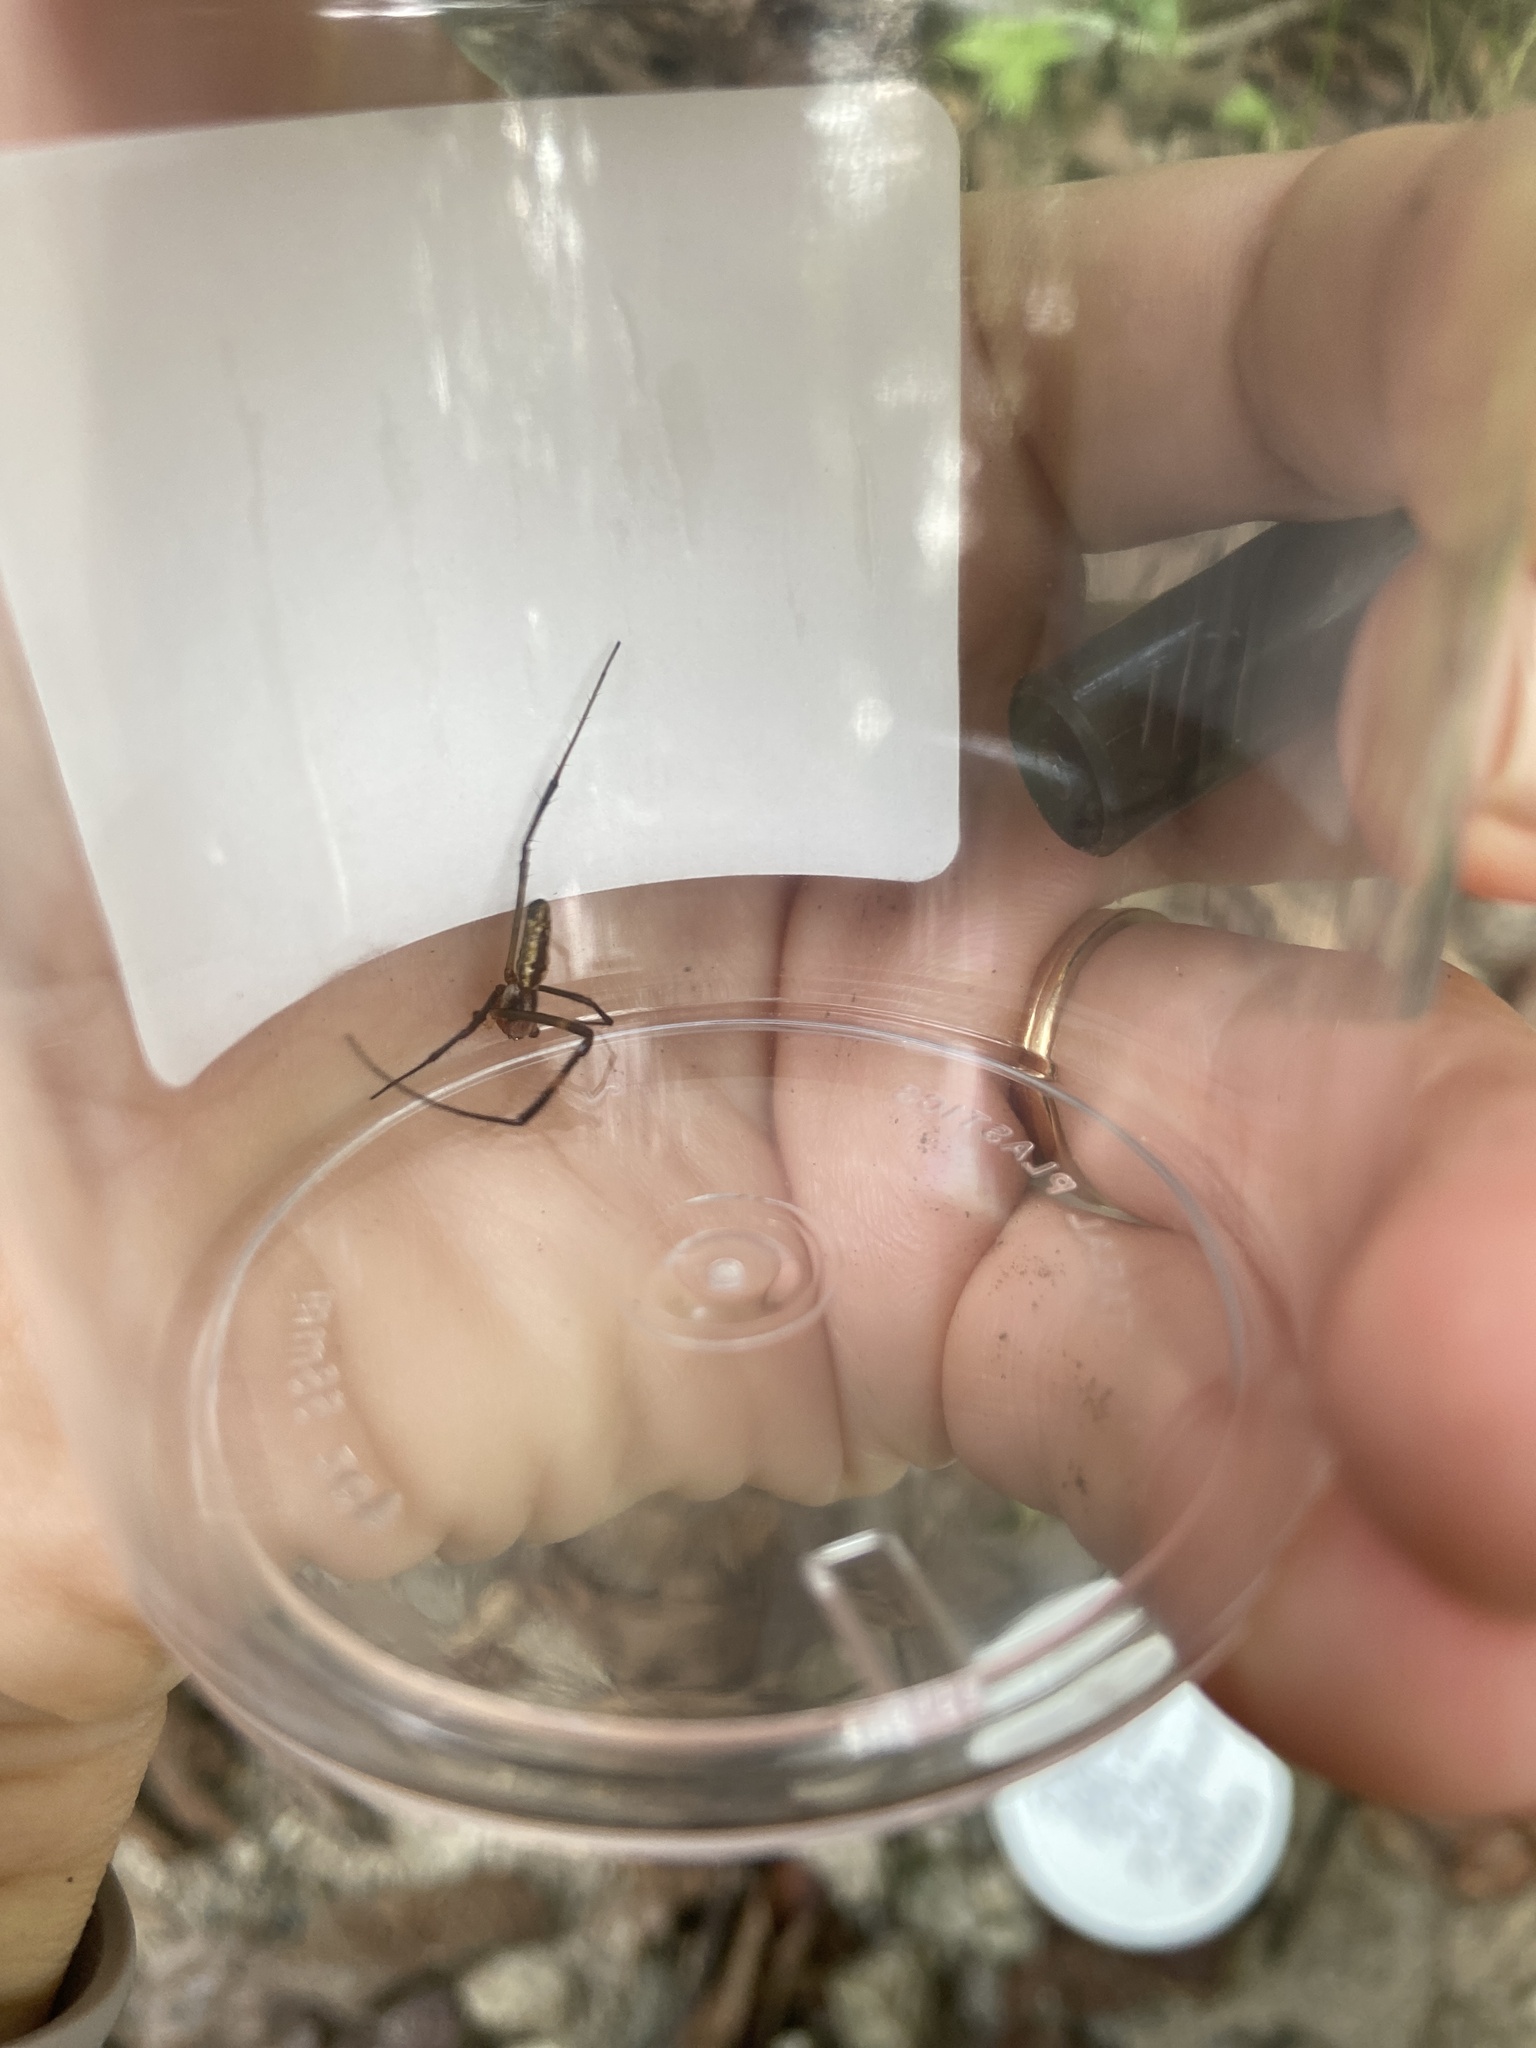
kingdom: Animalia
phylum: Arthropoda
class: Arachnida
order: Araneae
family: Araneidae
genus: Trichonephila
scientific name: Trichonephila clavata
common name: Jorō spider
